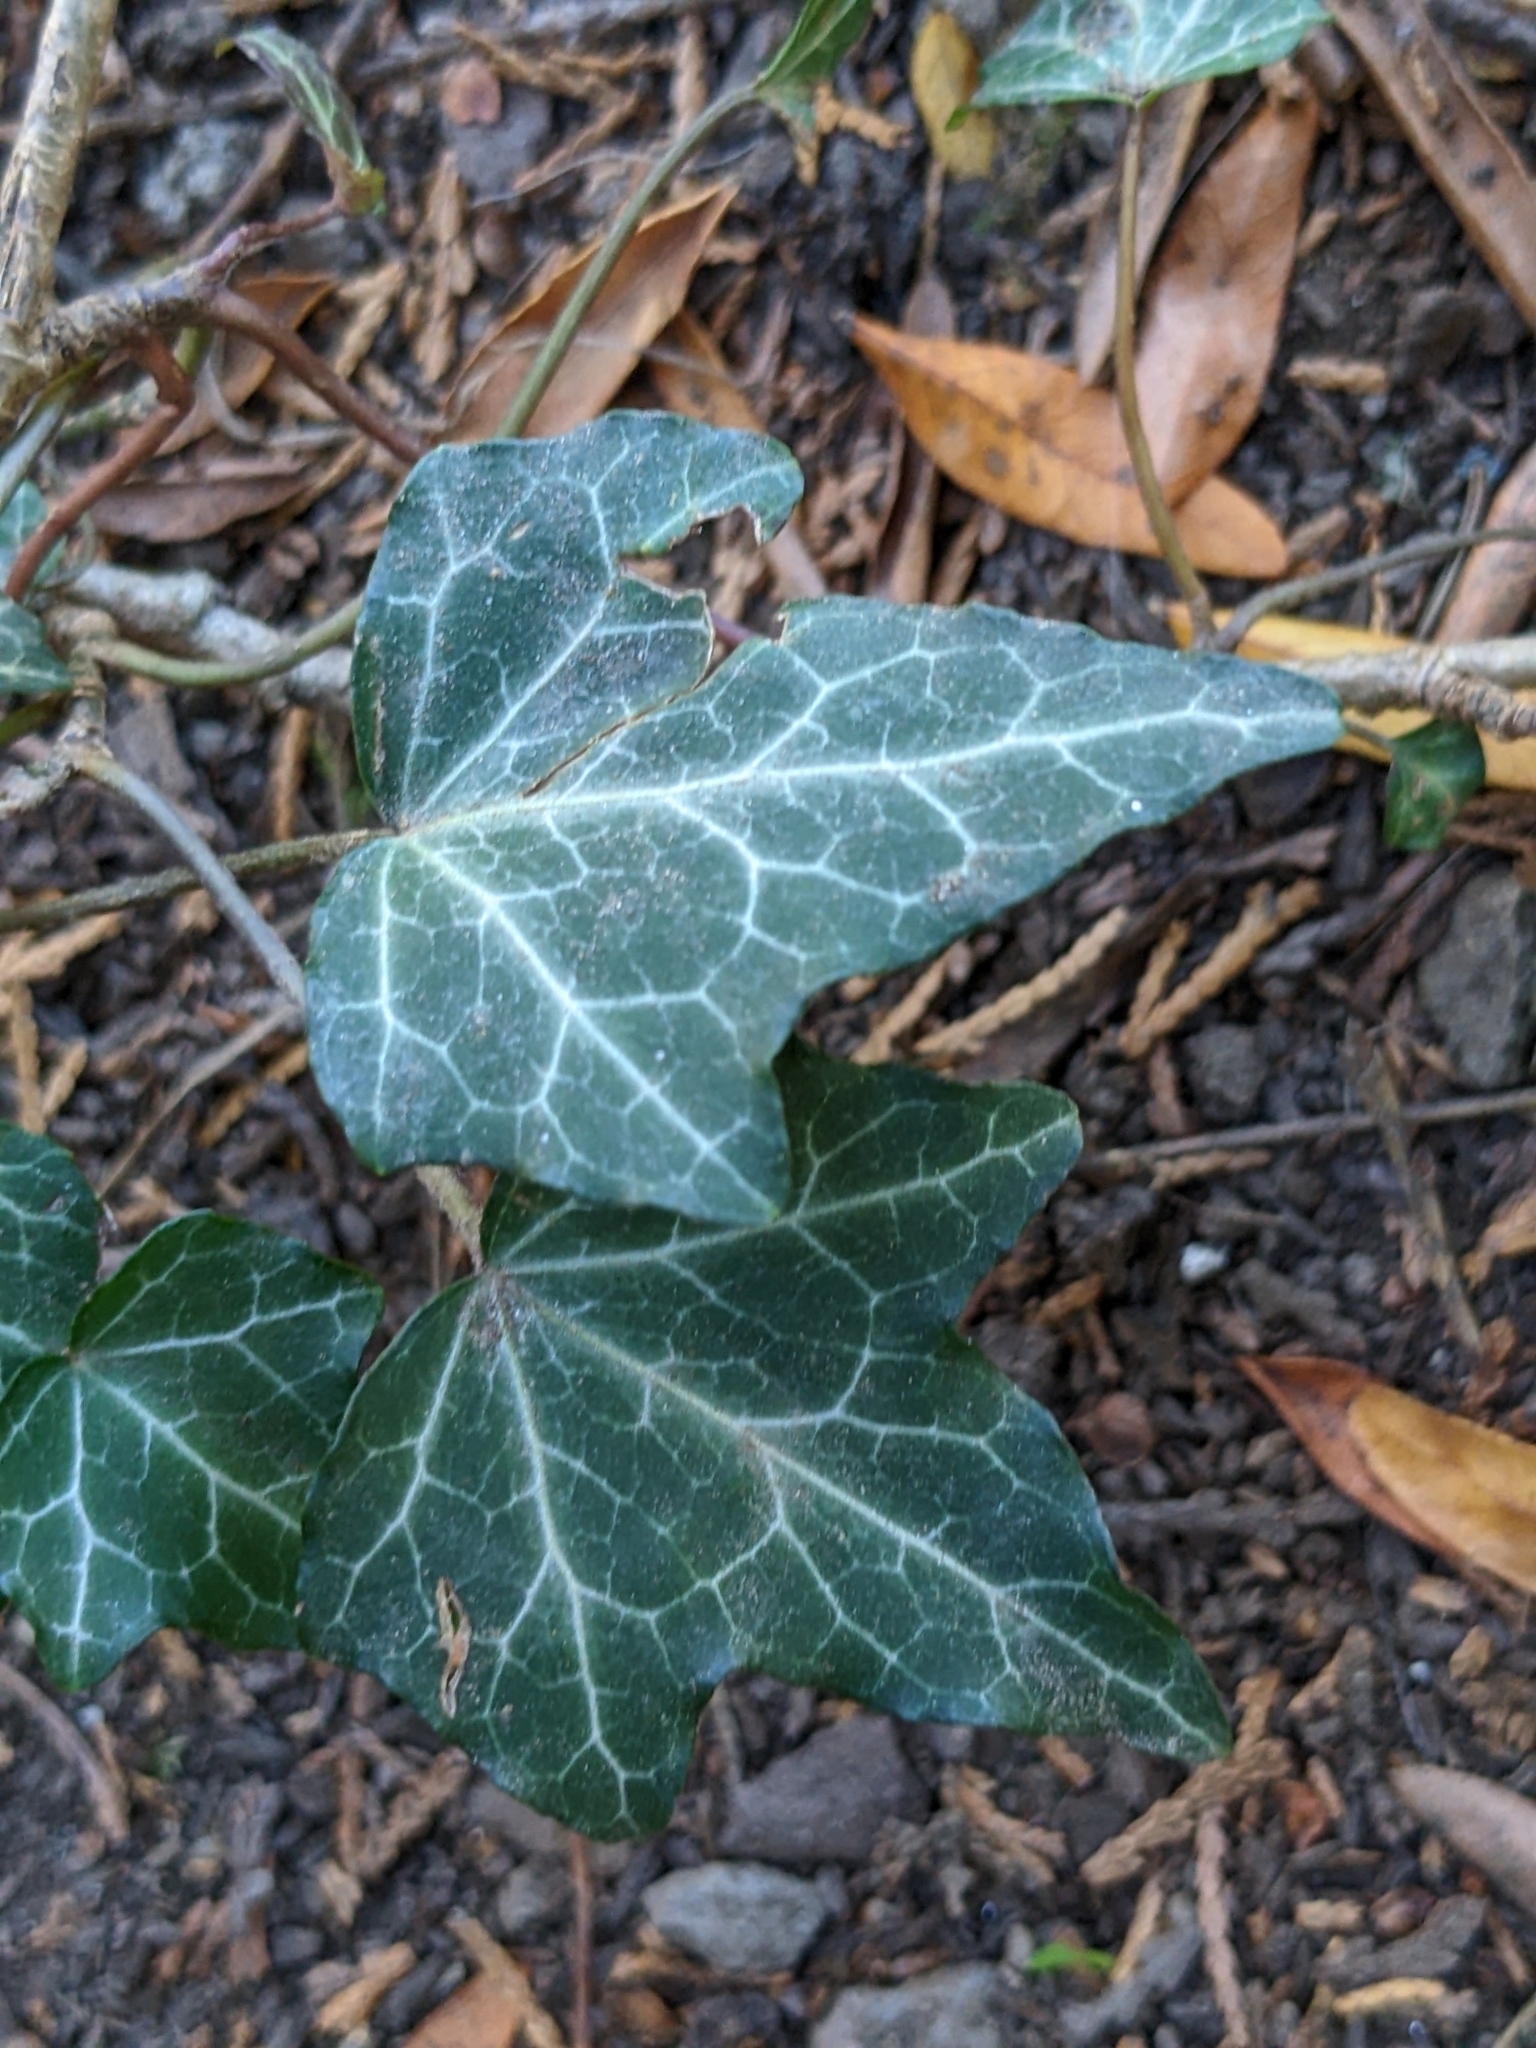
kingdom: Plantae
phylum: Tracheophyta
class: Magnoliopsida
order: Apiales
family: Araliaceae
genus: Hedera
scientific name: Hedera helix
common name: Ivy
